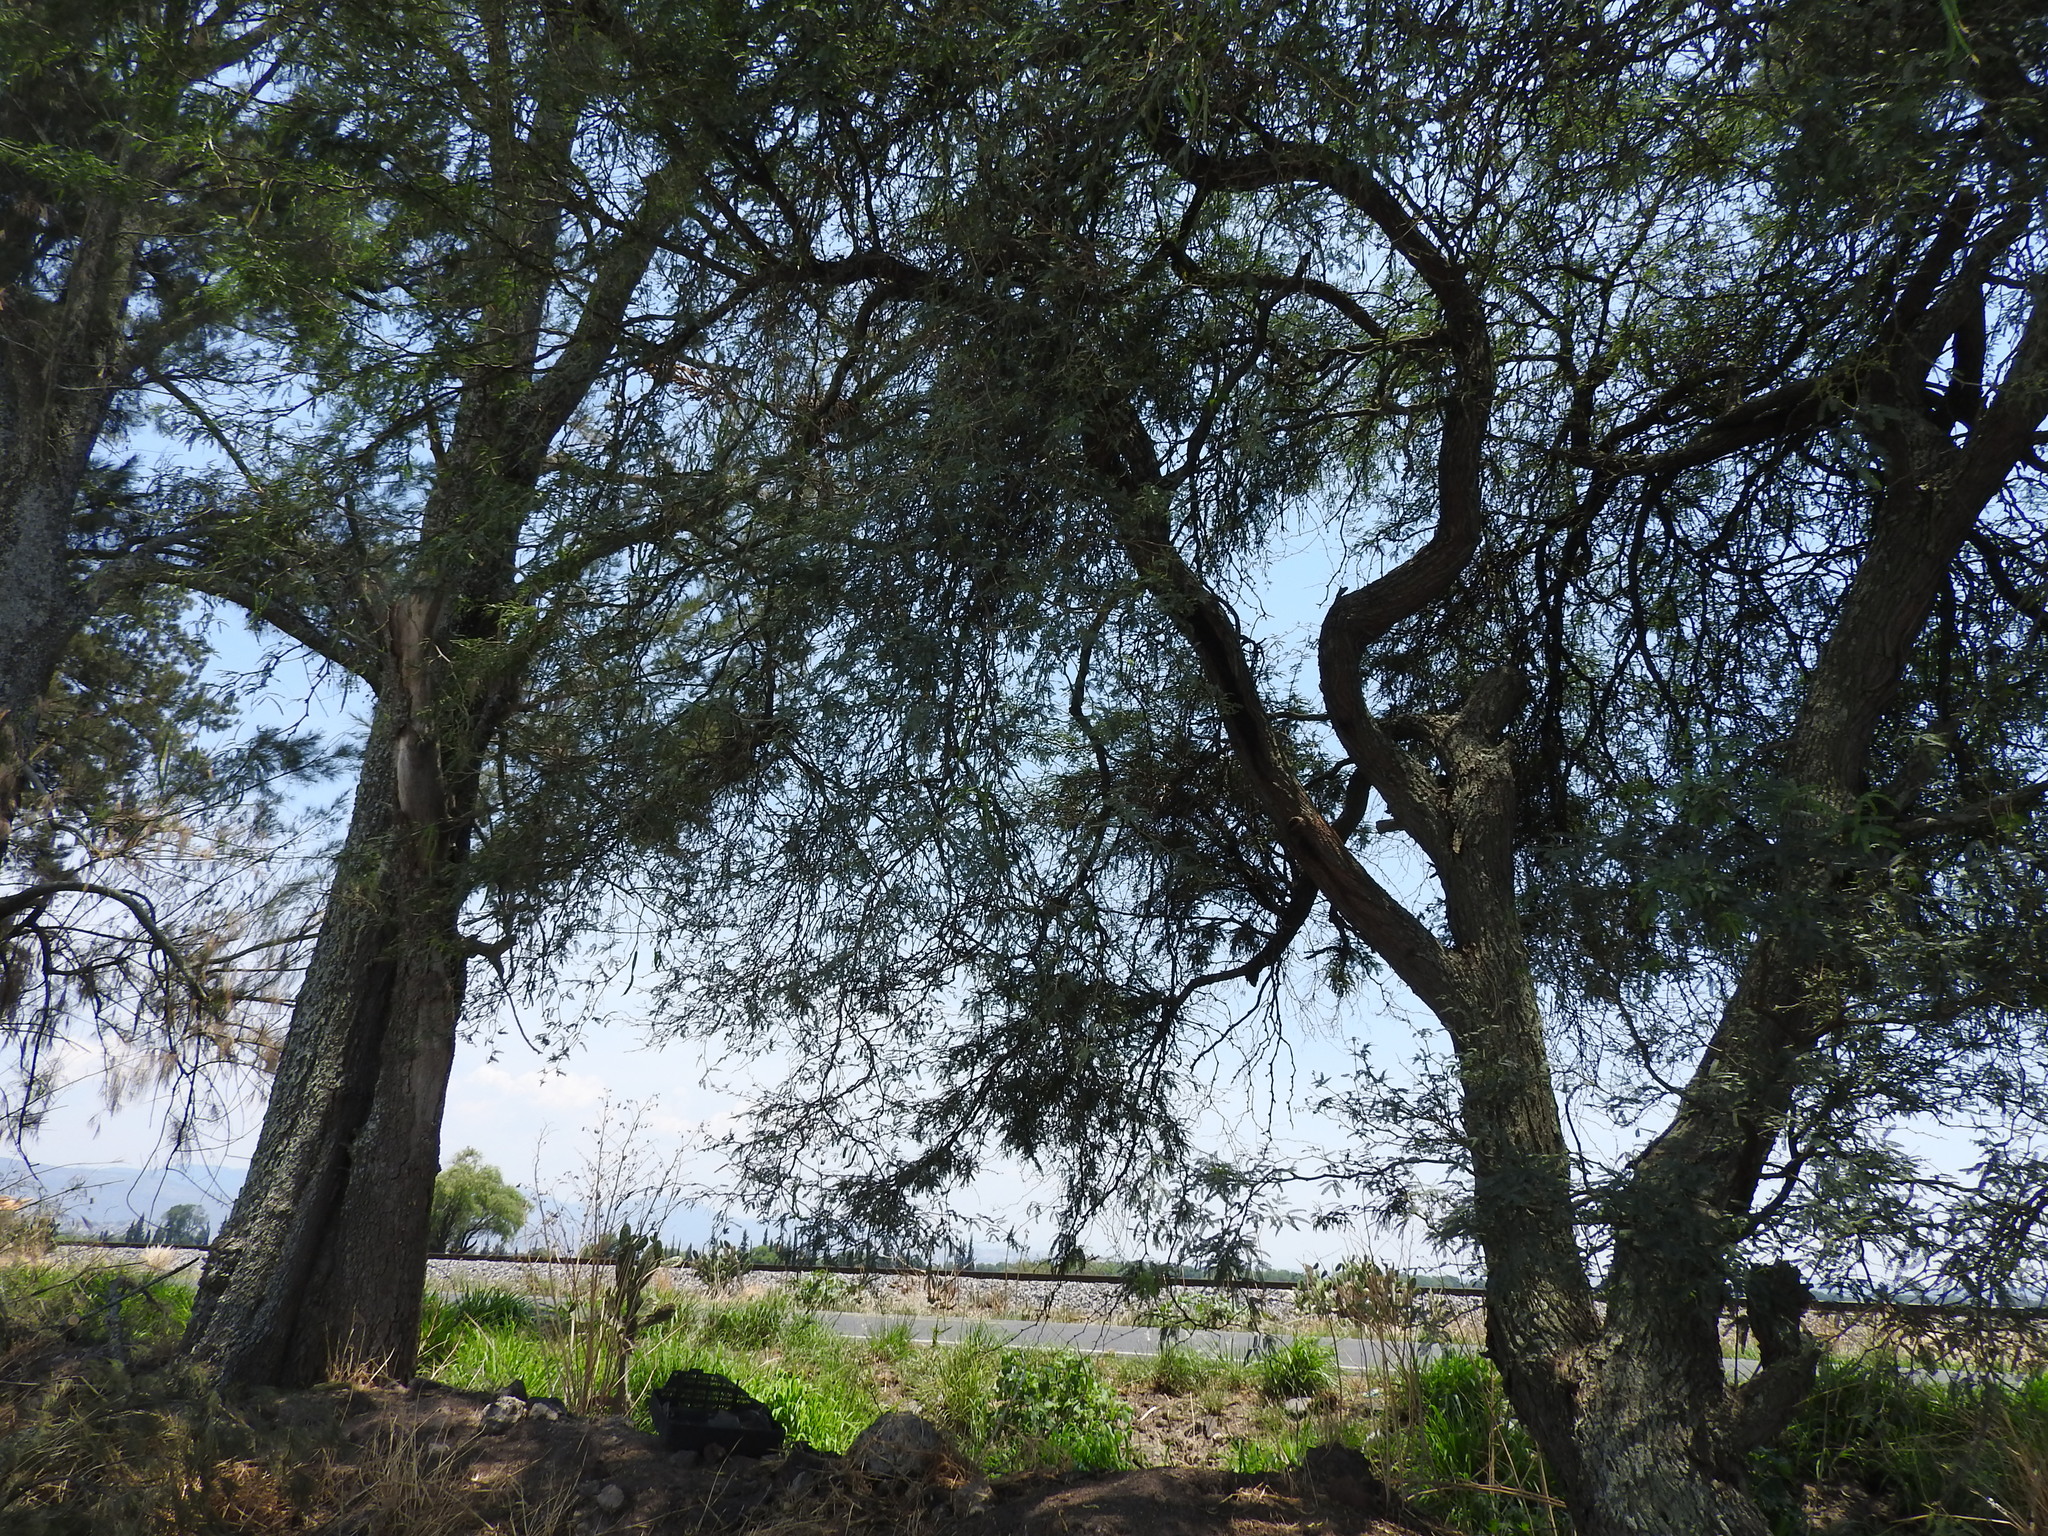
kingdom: Plantae
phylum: Tracheophyta
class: Magnoliopsida
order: Fabales
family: Fabaceae
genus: Prosopis
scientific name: Prosopis laevigata
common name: Smooth mesquite
